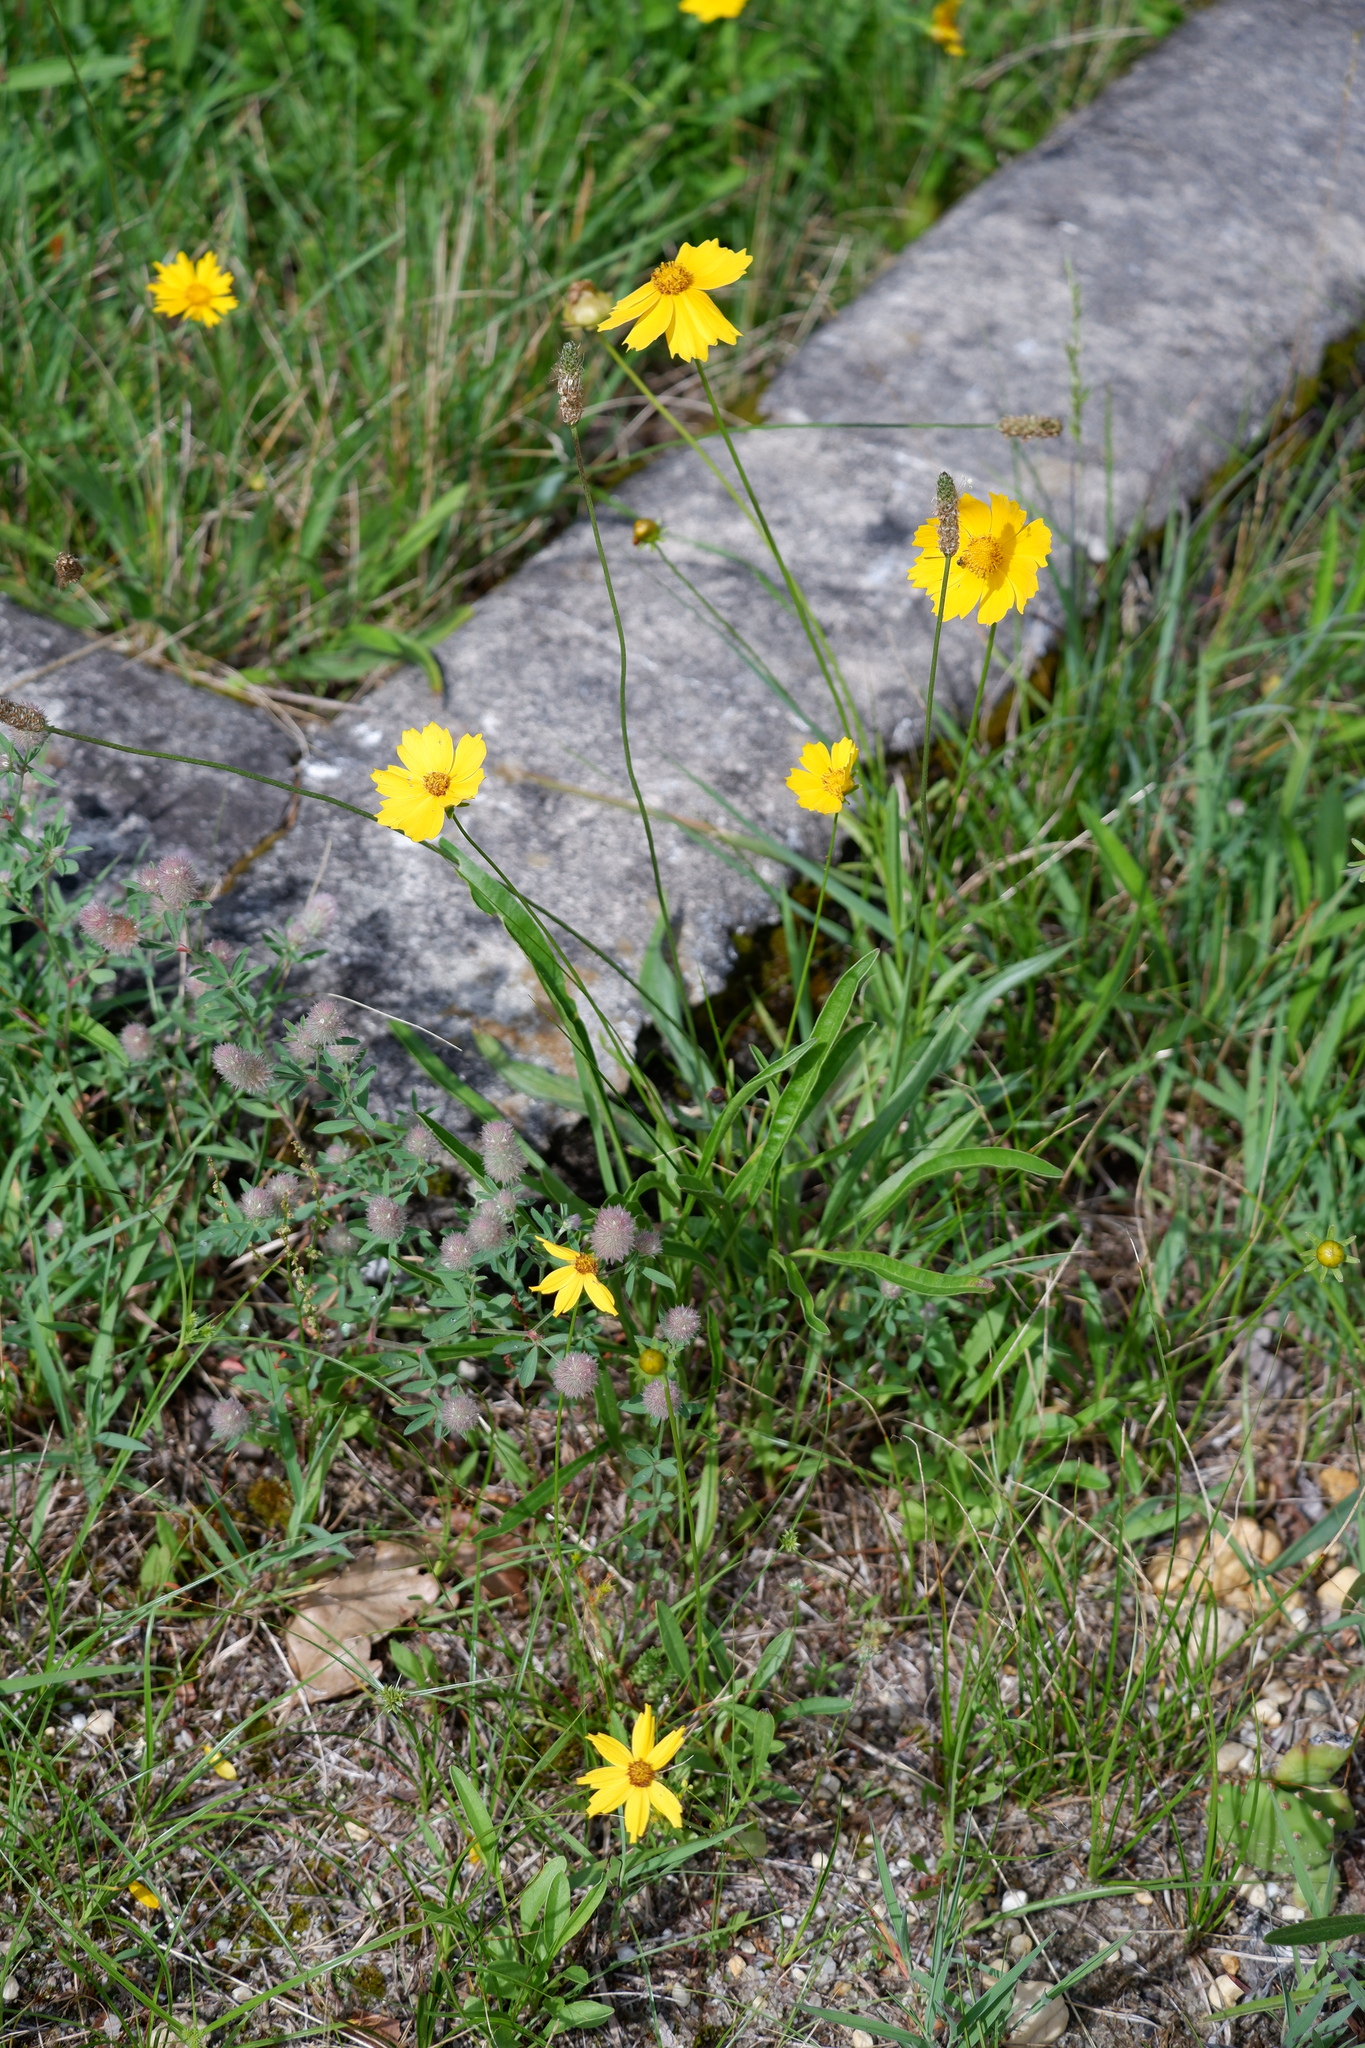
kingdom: Plantae
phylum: Tracheophyta
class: Magnoliopsida
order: Asterales
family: Asteraceae
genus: Coreopsis
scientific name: Coreopsis lanceolata
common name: Garden coreopsis
